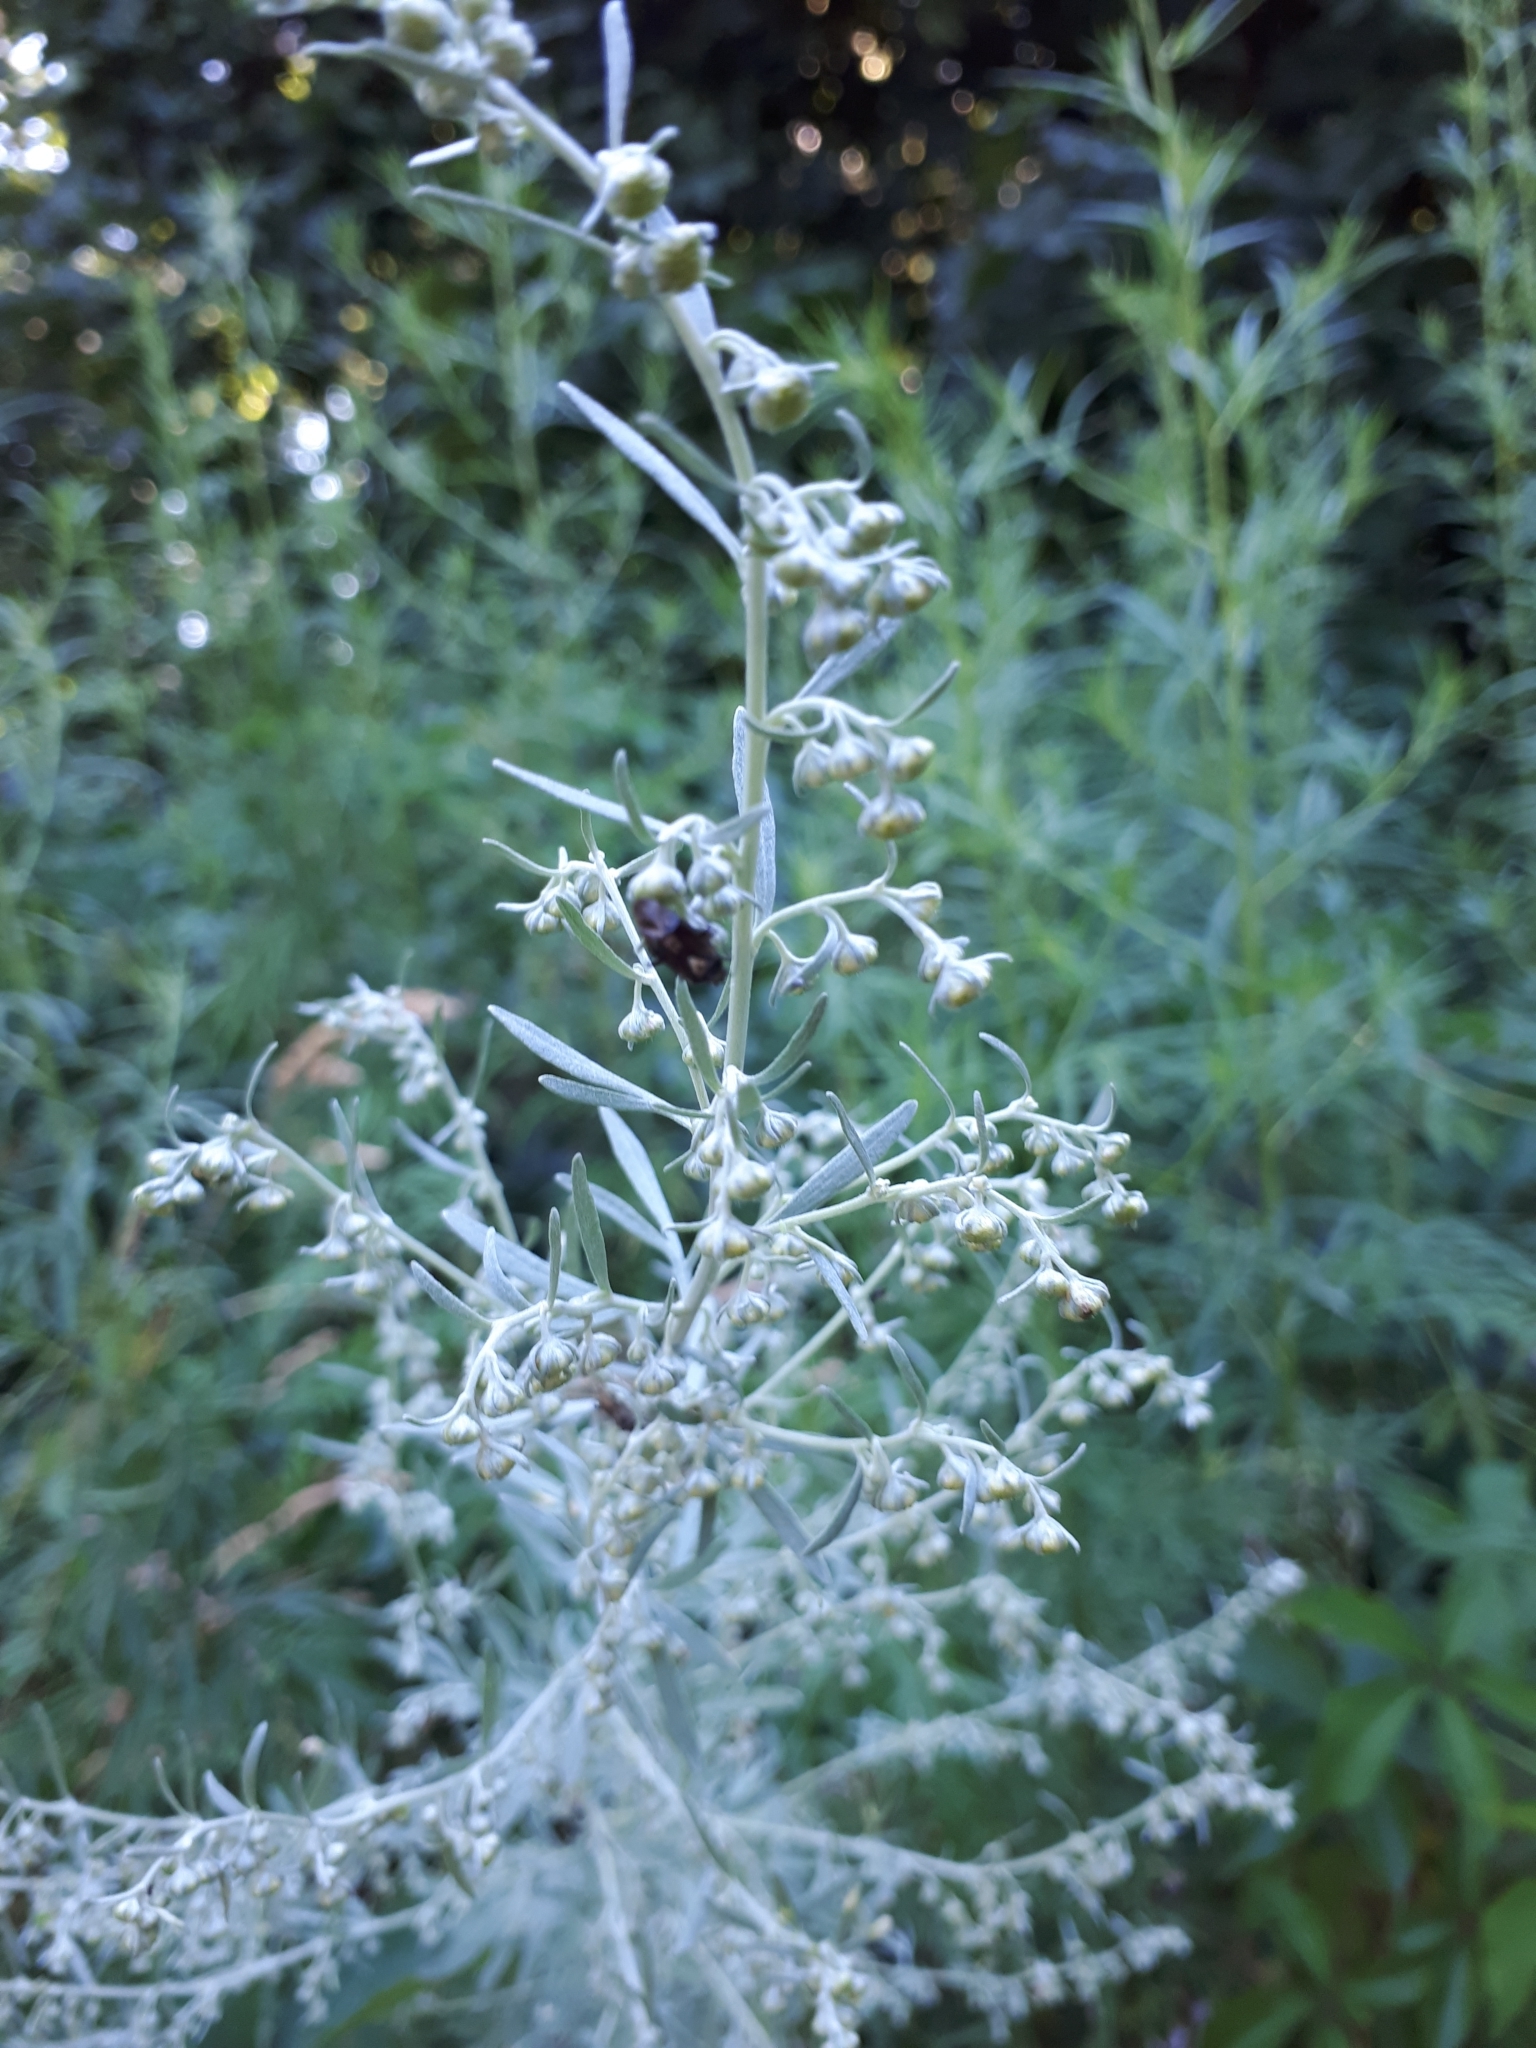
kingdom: Plantae
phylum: Tracheophyta
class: Magnoliopsida
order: Asterales
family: Asteraceae
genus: Artemisia
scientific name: Artemisia absinthium
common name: Wormwood
